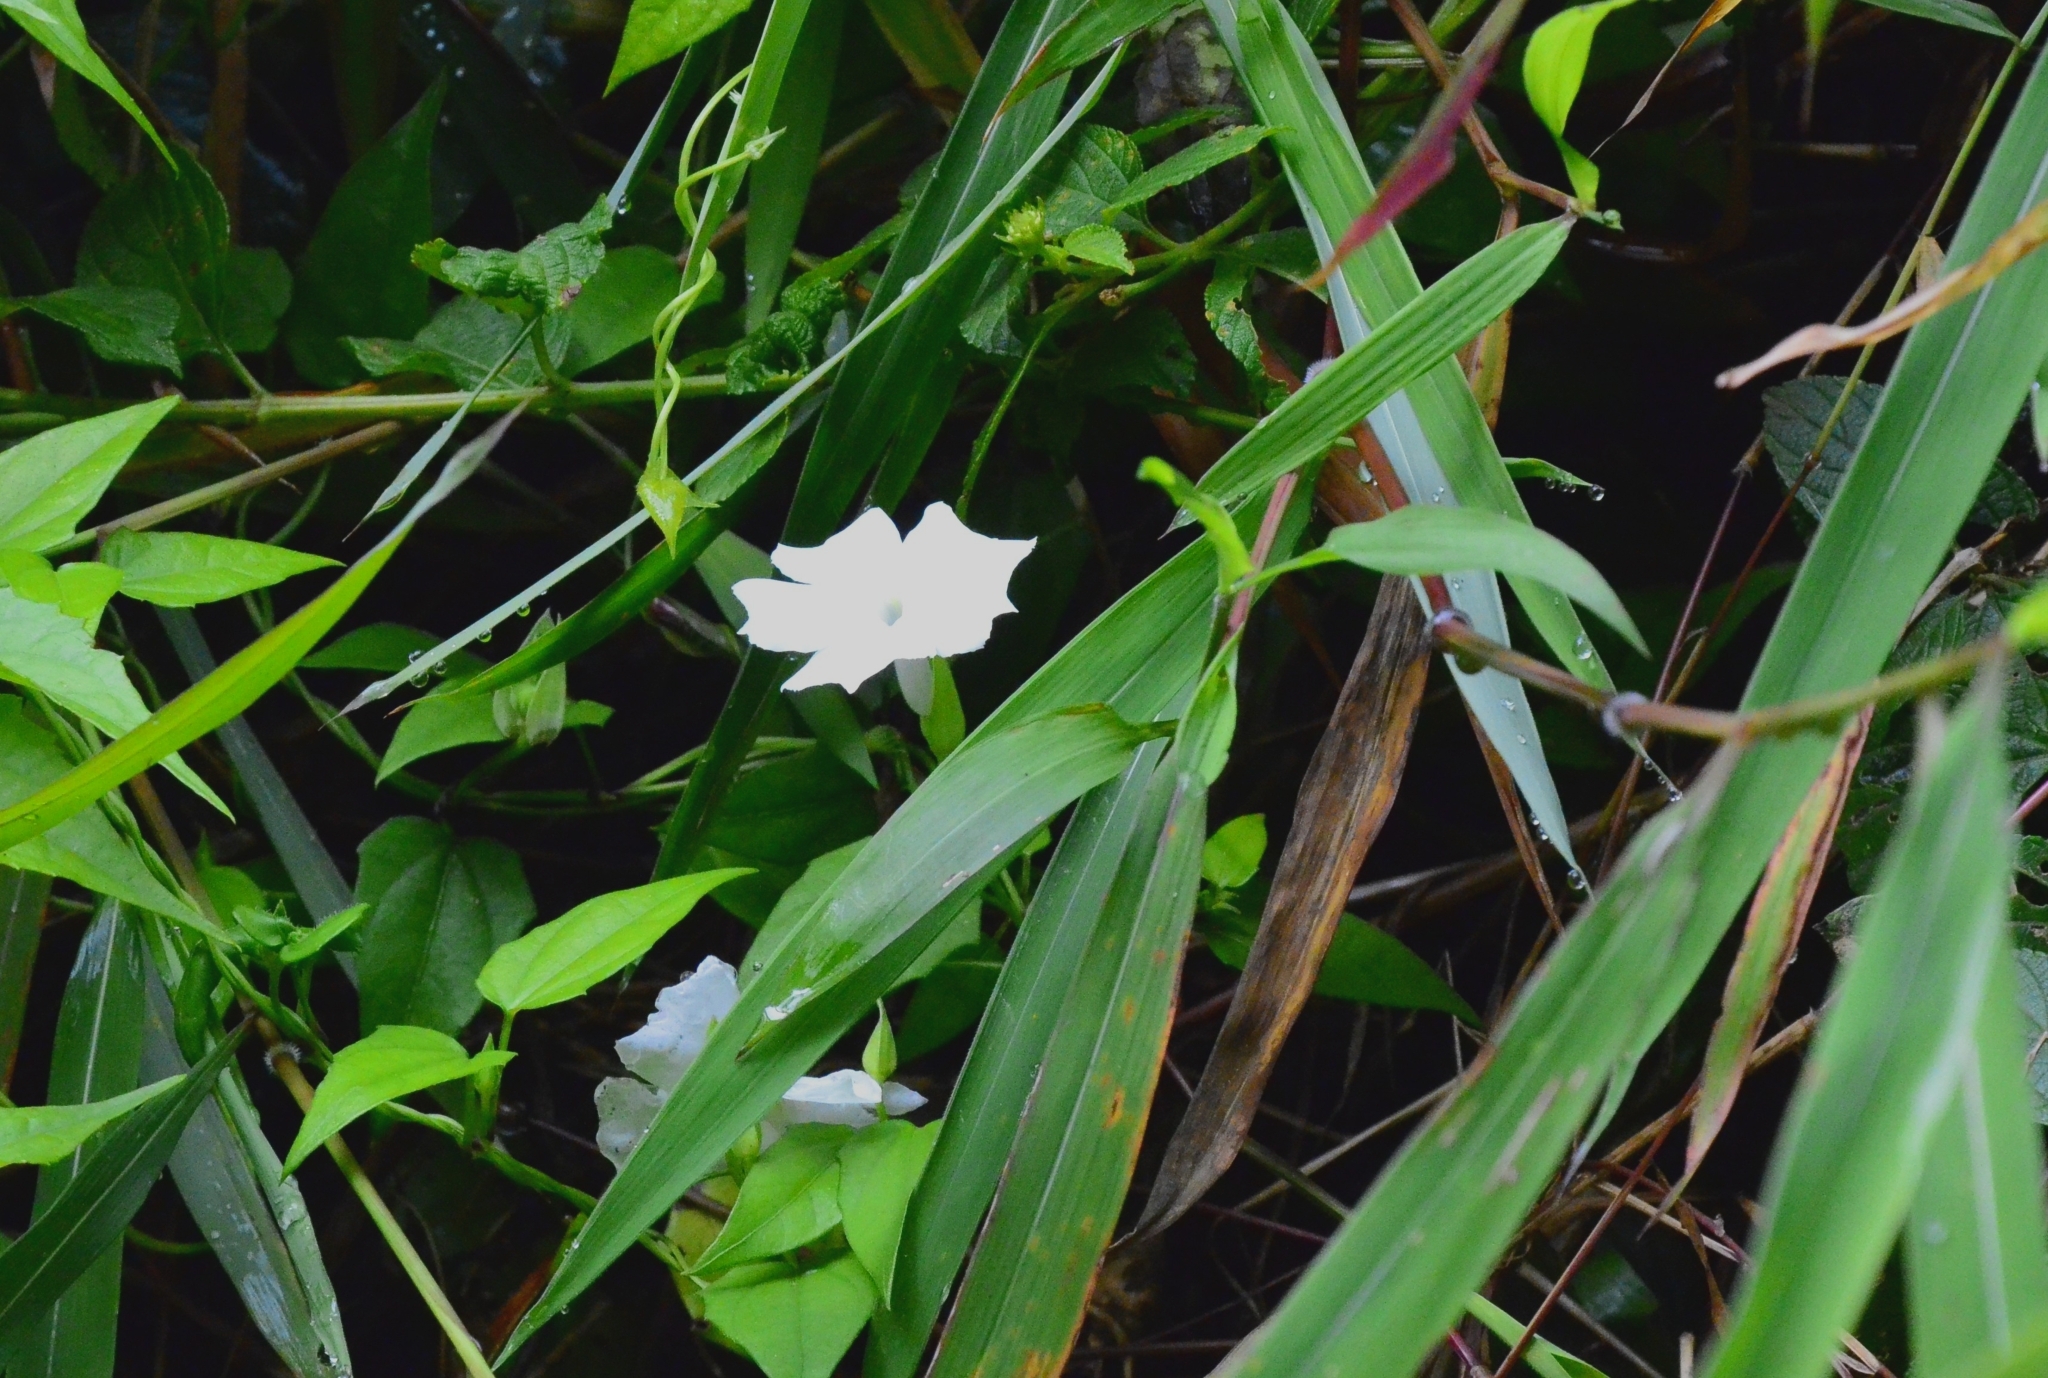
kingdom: Plantae
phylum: Tracheophyta
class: Magnoliopsida
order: Lamiales
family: Acanthaceae
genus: Thunbergia
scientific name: Thunbergia fragrans
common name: Whitelady
